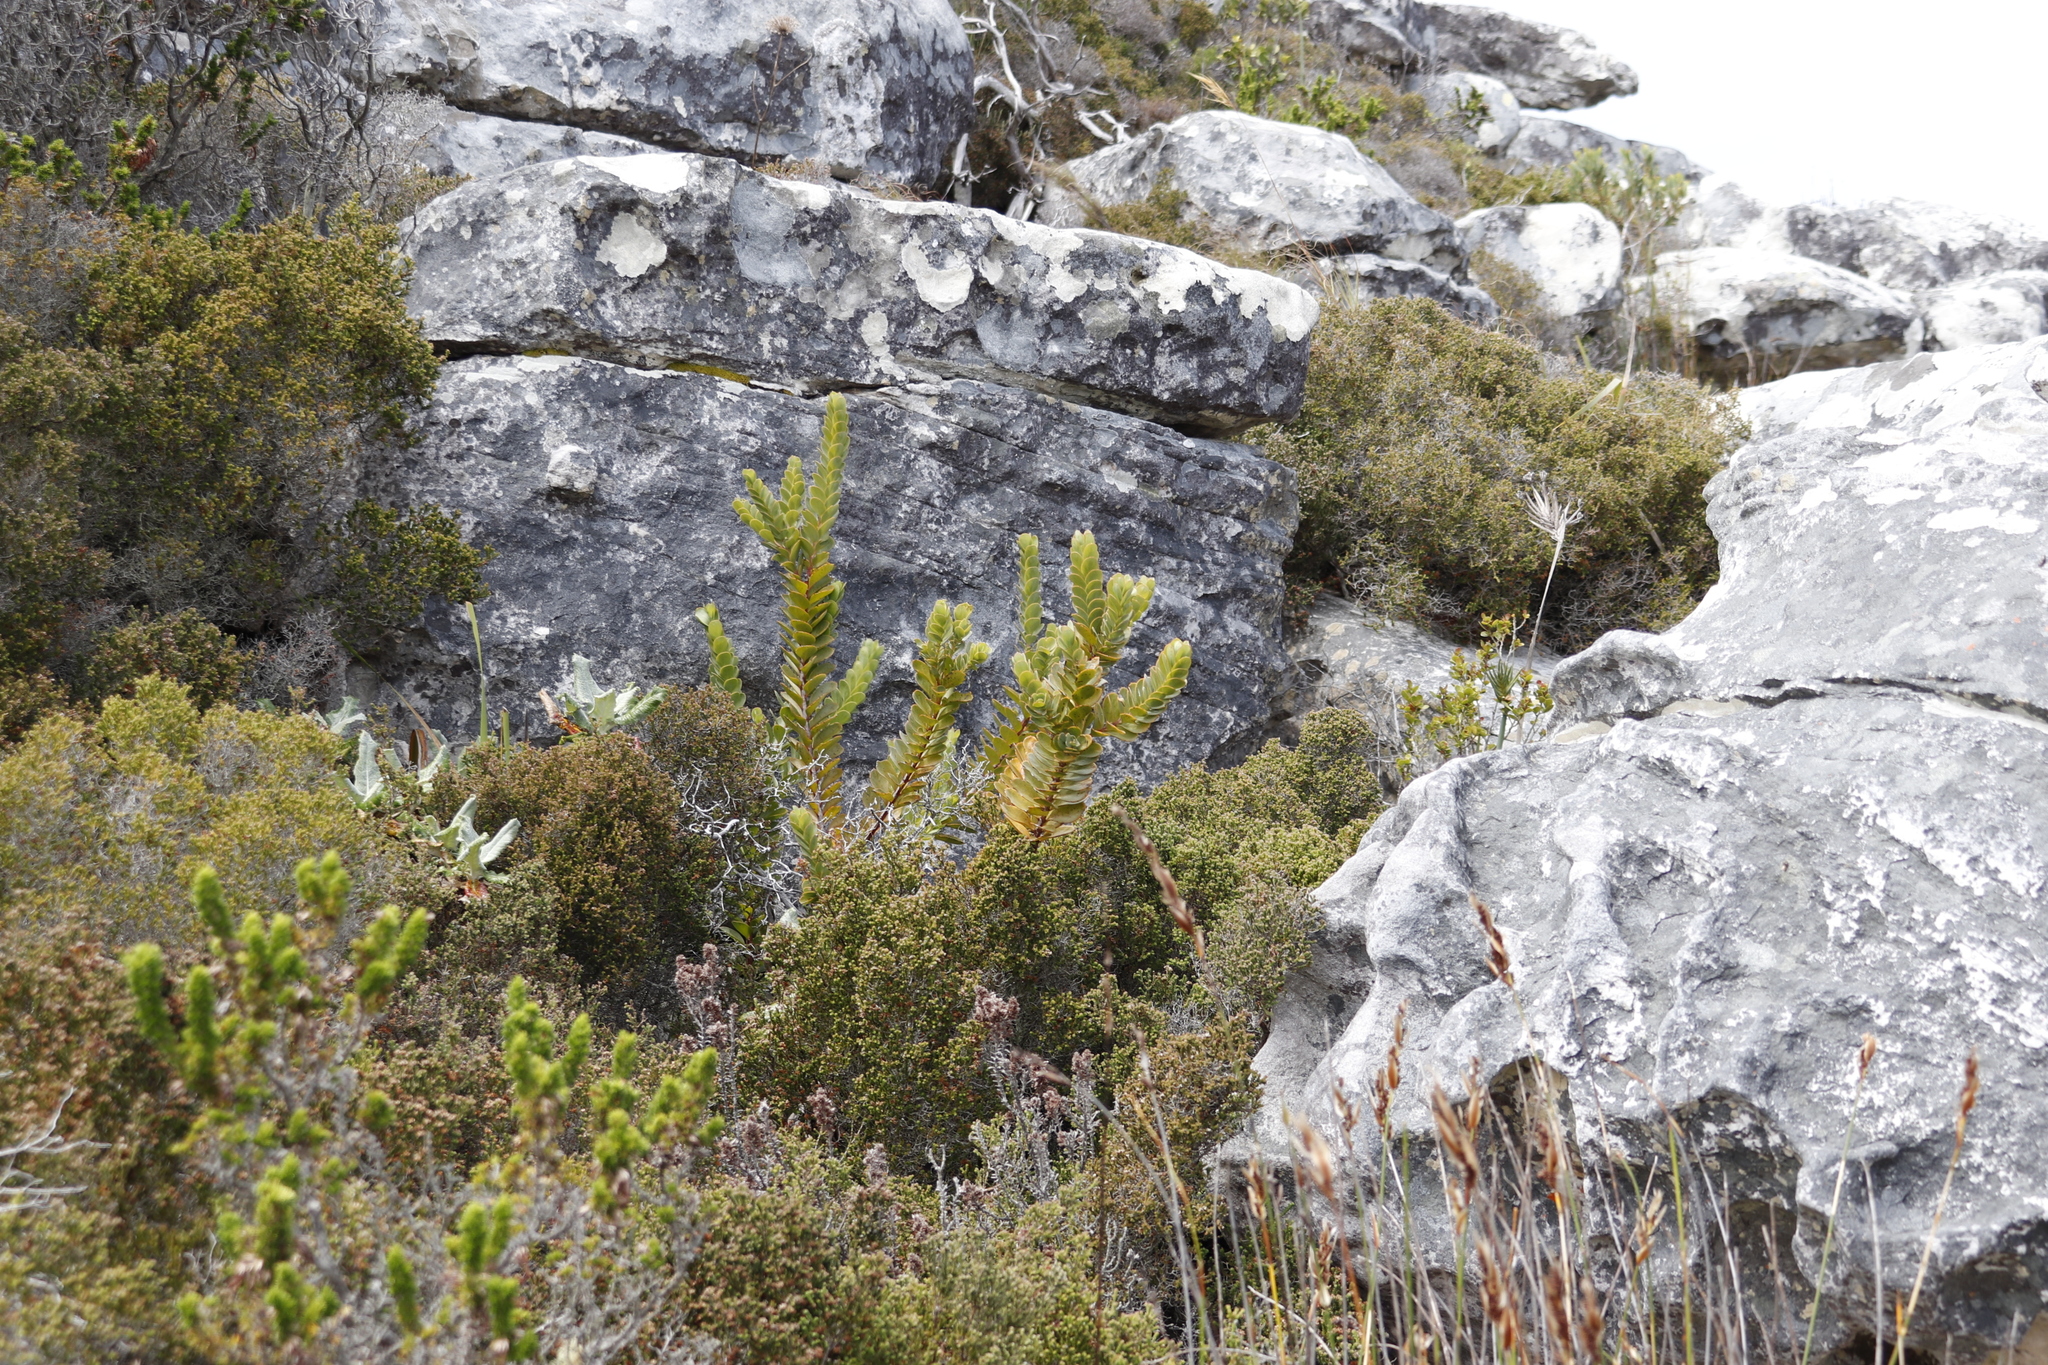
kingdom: Plantae
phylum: Tracheophyta
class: Magnoliopsida
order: Santalales
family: Santalaceae
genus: Osyris
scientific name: Osyris compressa
